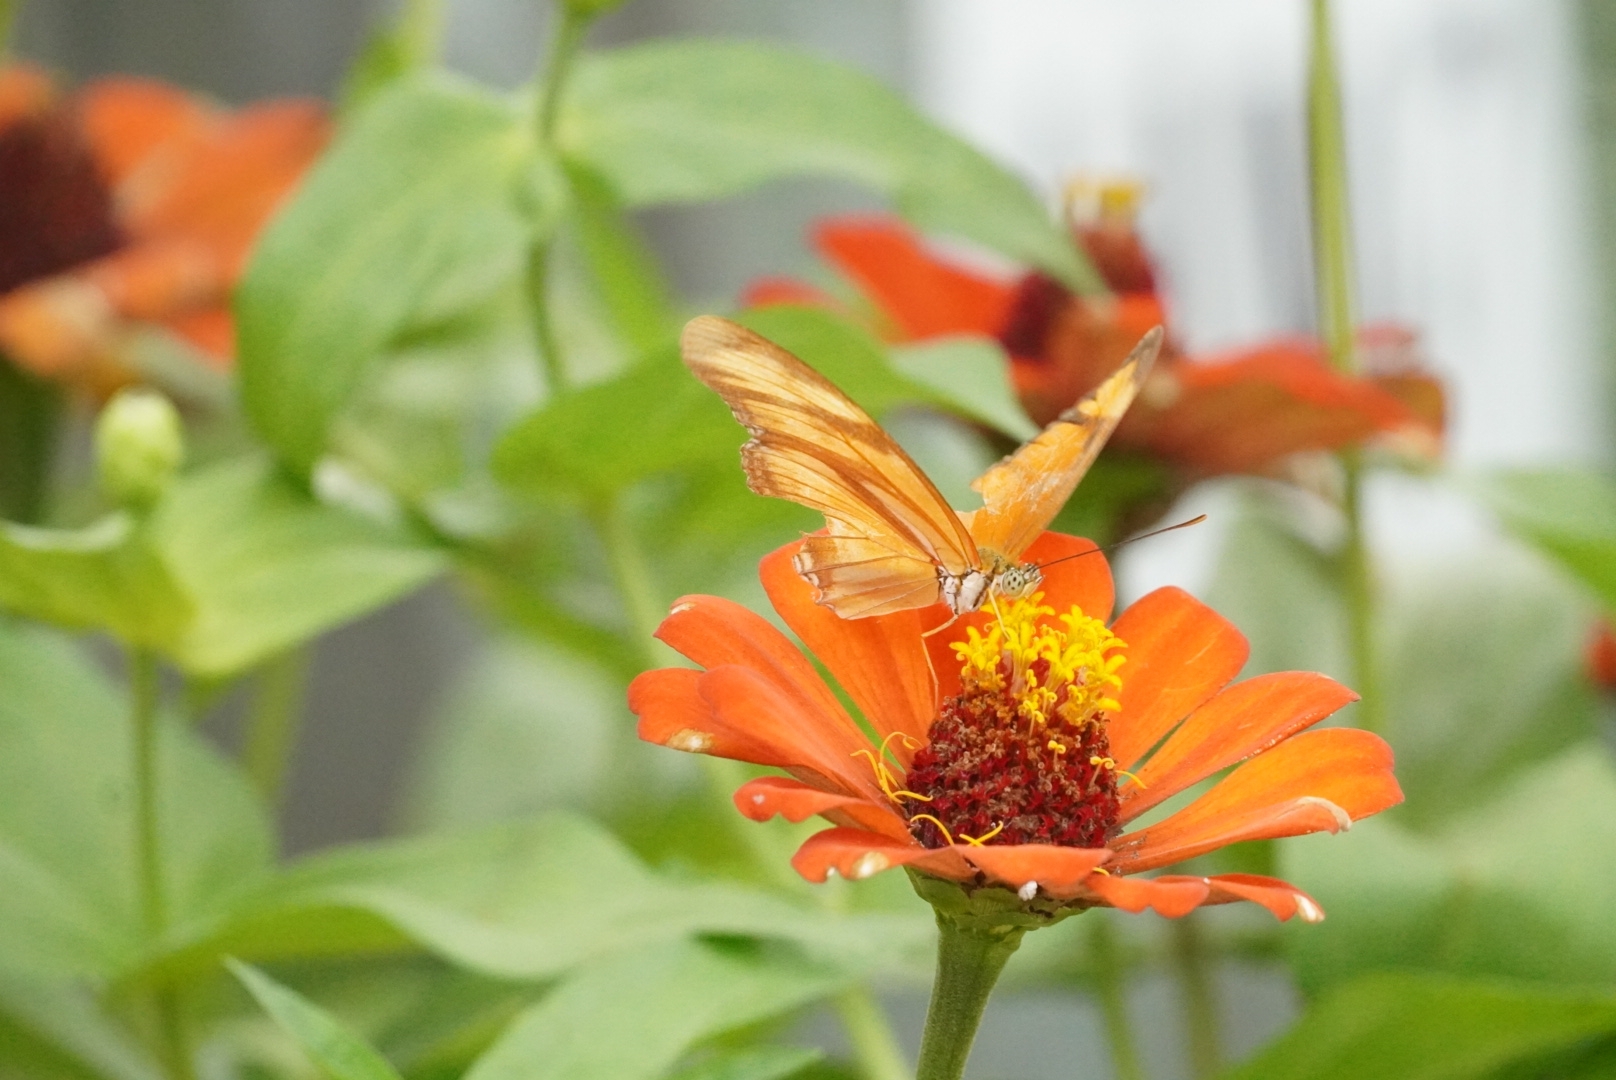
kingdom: Animalia
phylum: Arthropoda
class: Insecta
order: Lepidoptera
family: Nymphalidae
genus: Dryas
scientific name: Dryas iulia
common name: Flambeau
